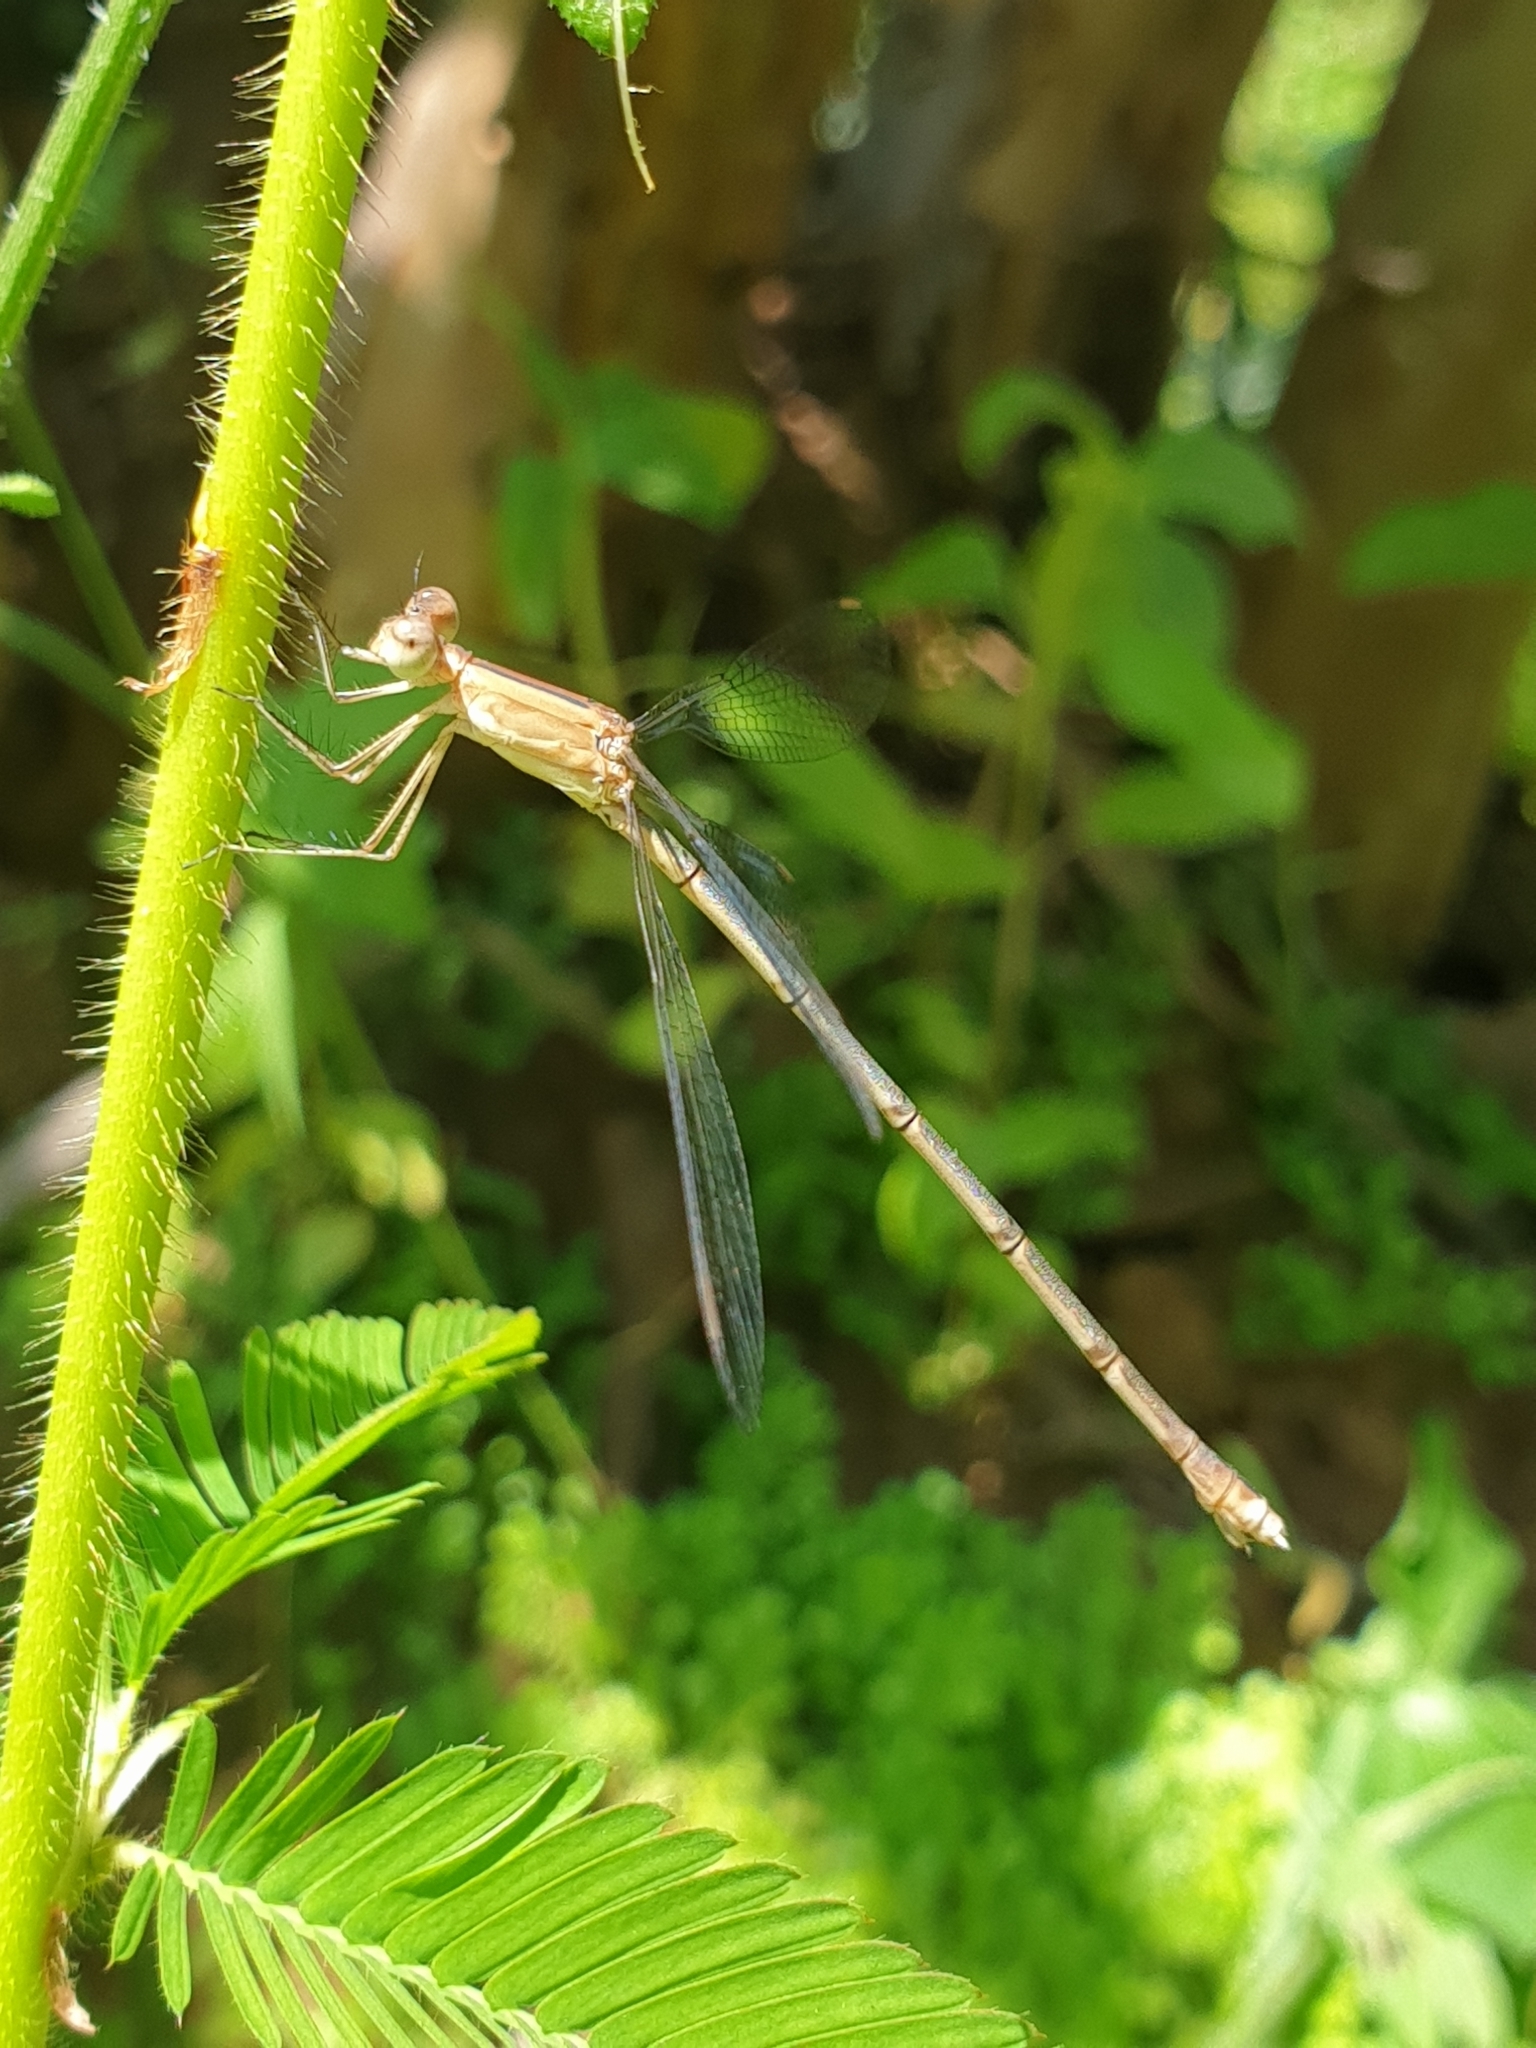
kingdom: Animalia
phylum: Arthropoda
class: Insecta
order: Odonata
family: Lestidae
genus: Lestes
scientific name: Lestes viridulus
